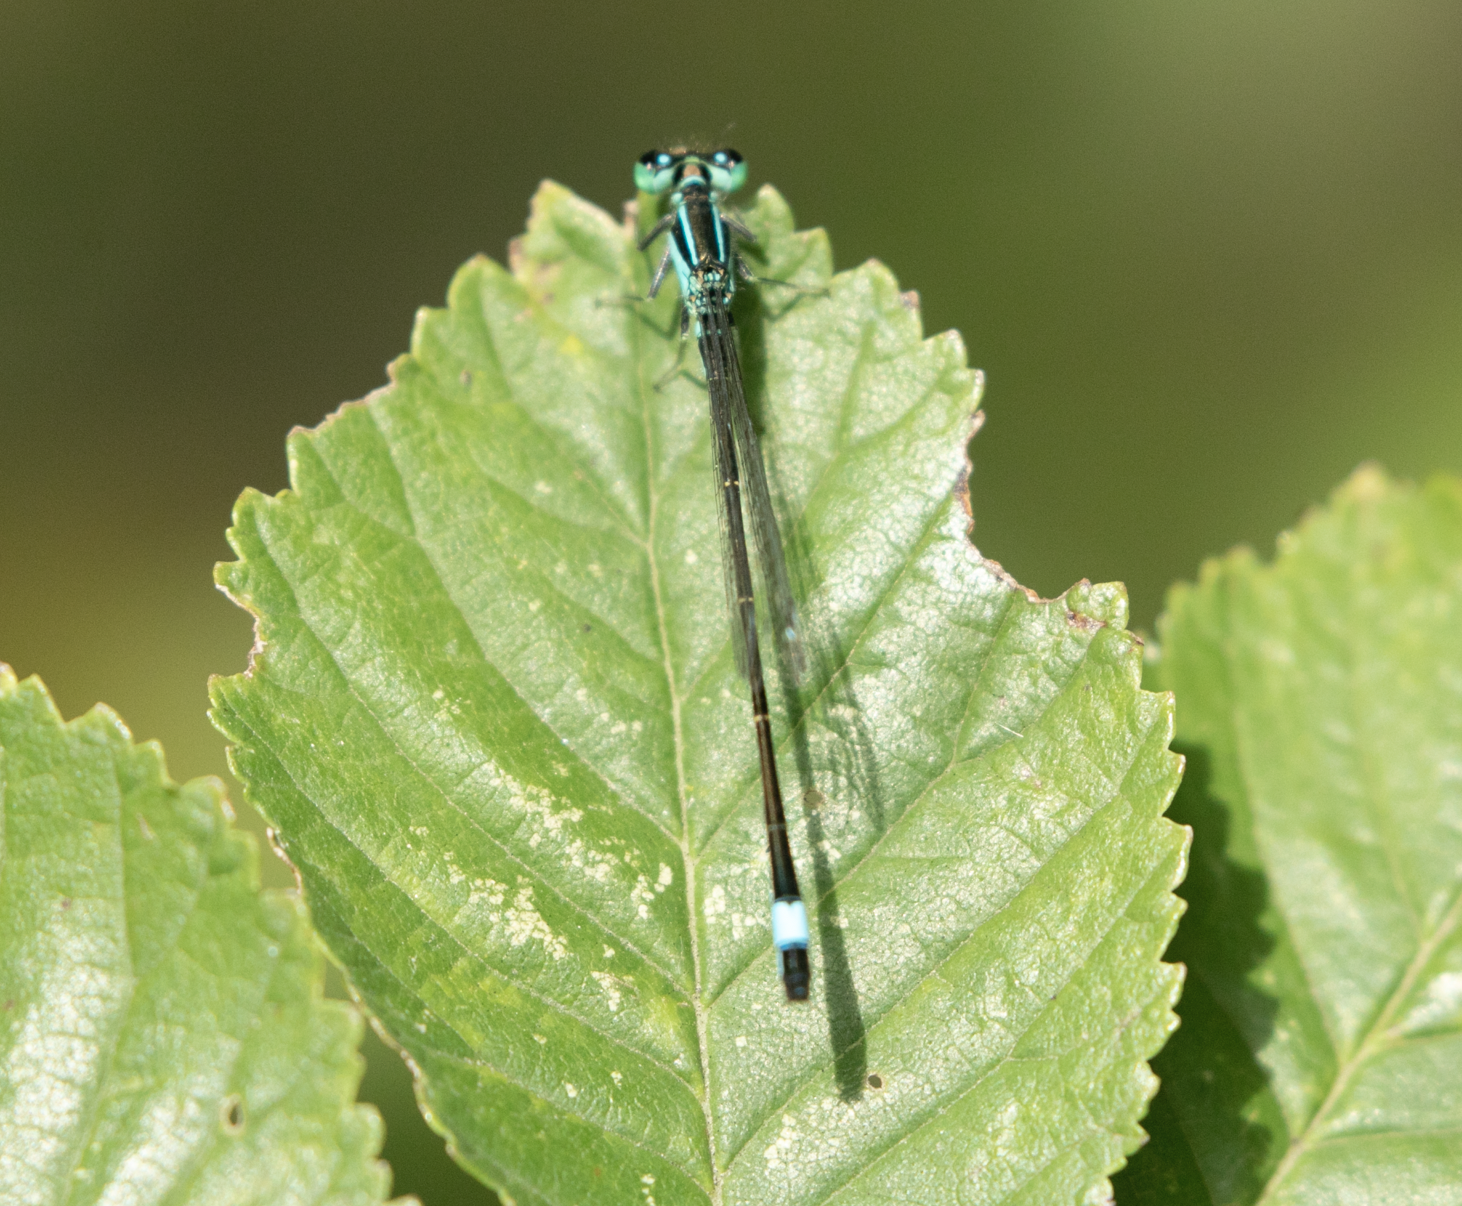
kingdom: Animalia
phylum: Arthropoda
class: Insecta
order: Odonata
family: Coenagrionidae
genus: Ischnura
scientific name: Ischnura elegans
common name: Blue-tailed damselfly
